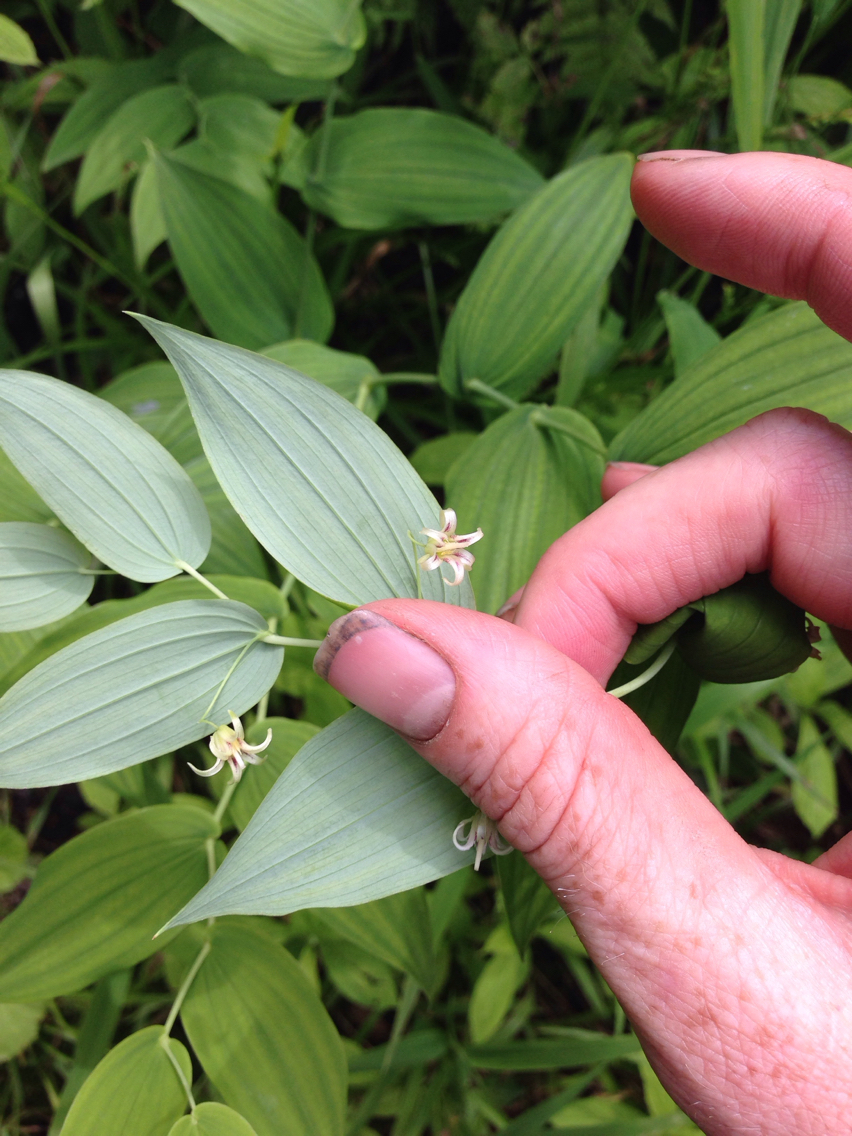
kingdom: Plantae
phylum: Tracheophyta
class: Liliopsida
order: Liliales
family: Liliaceae
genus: Streptopus
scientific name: Streptopus amplexifolius
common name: Clasp twisted stalk
